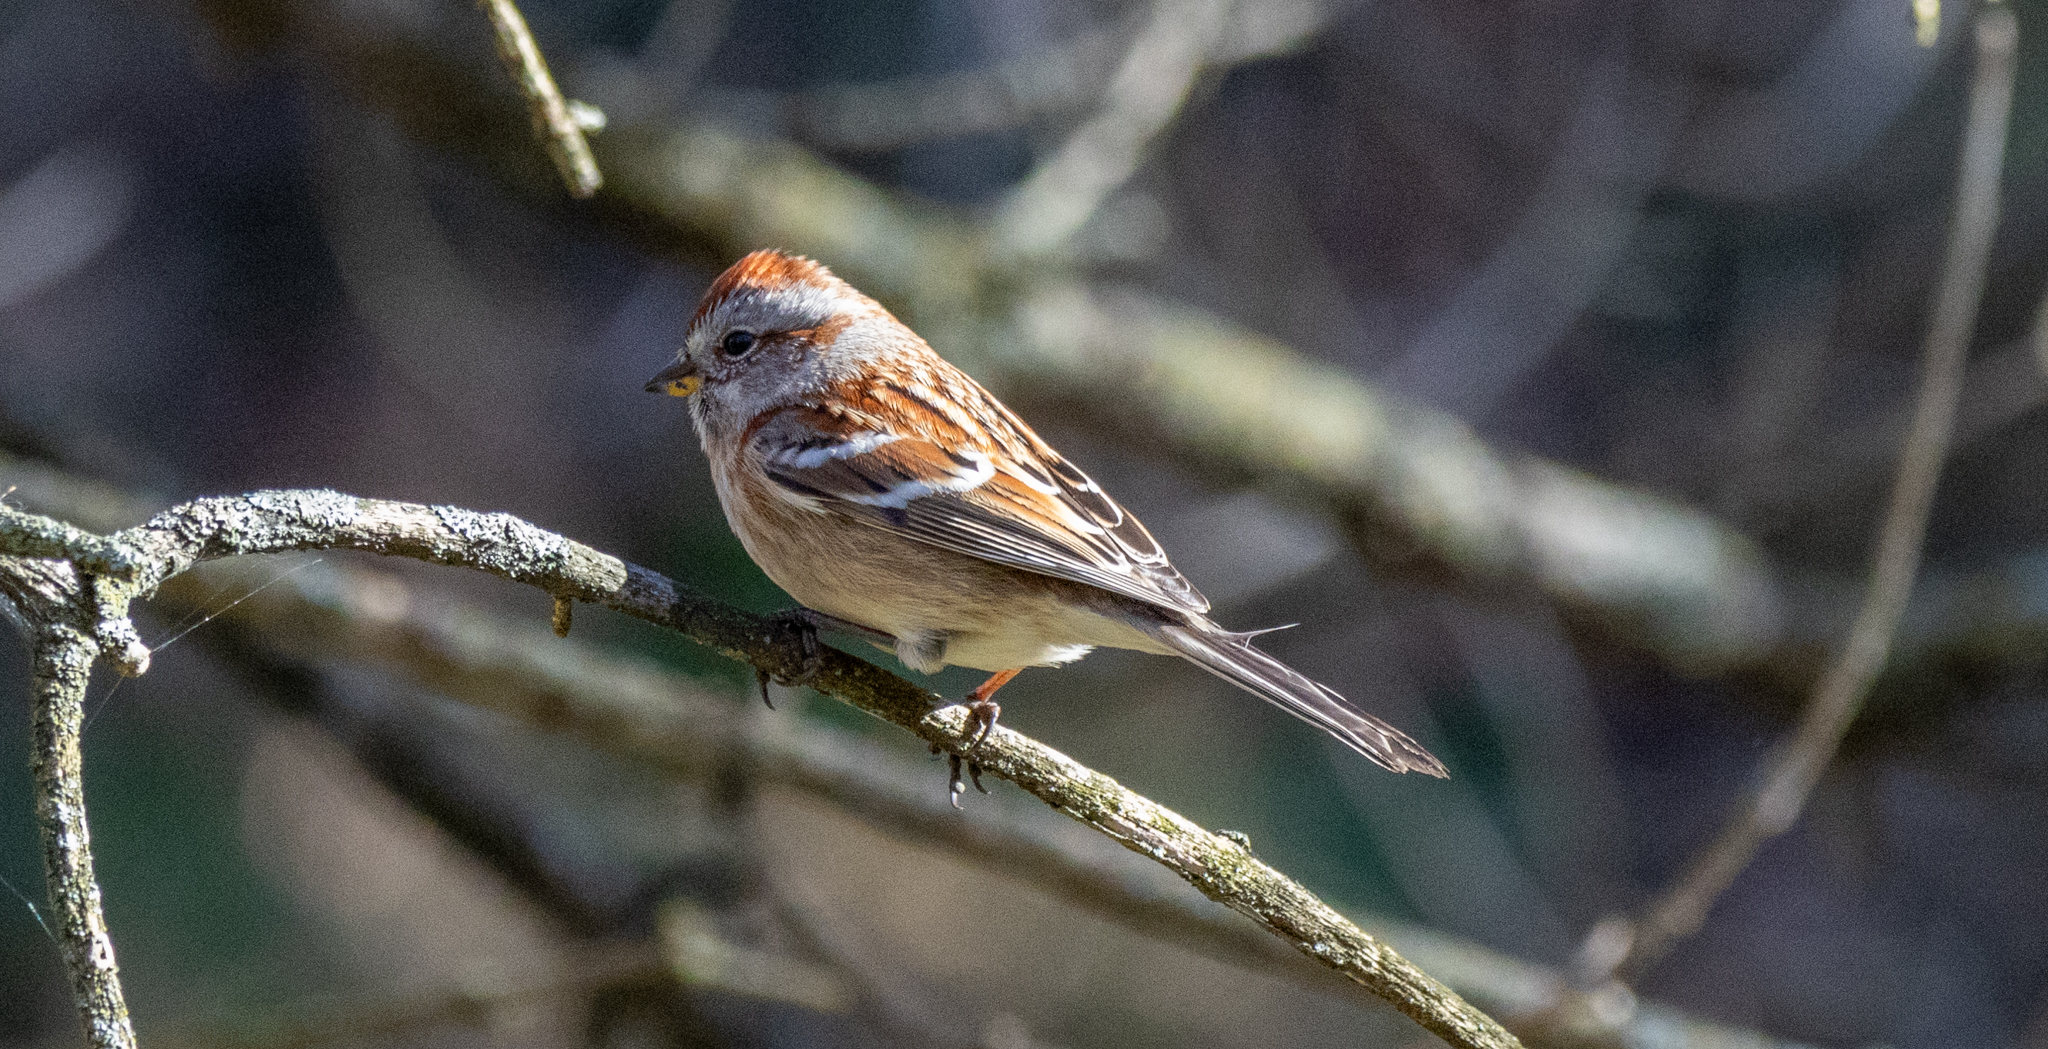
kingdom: Animalia
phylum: Chordata
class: Aves
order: Passeriformes
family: Passerellidae
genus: Spizelloides
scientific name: Spizelloides arborea
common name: American tree sparrow
